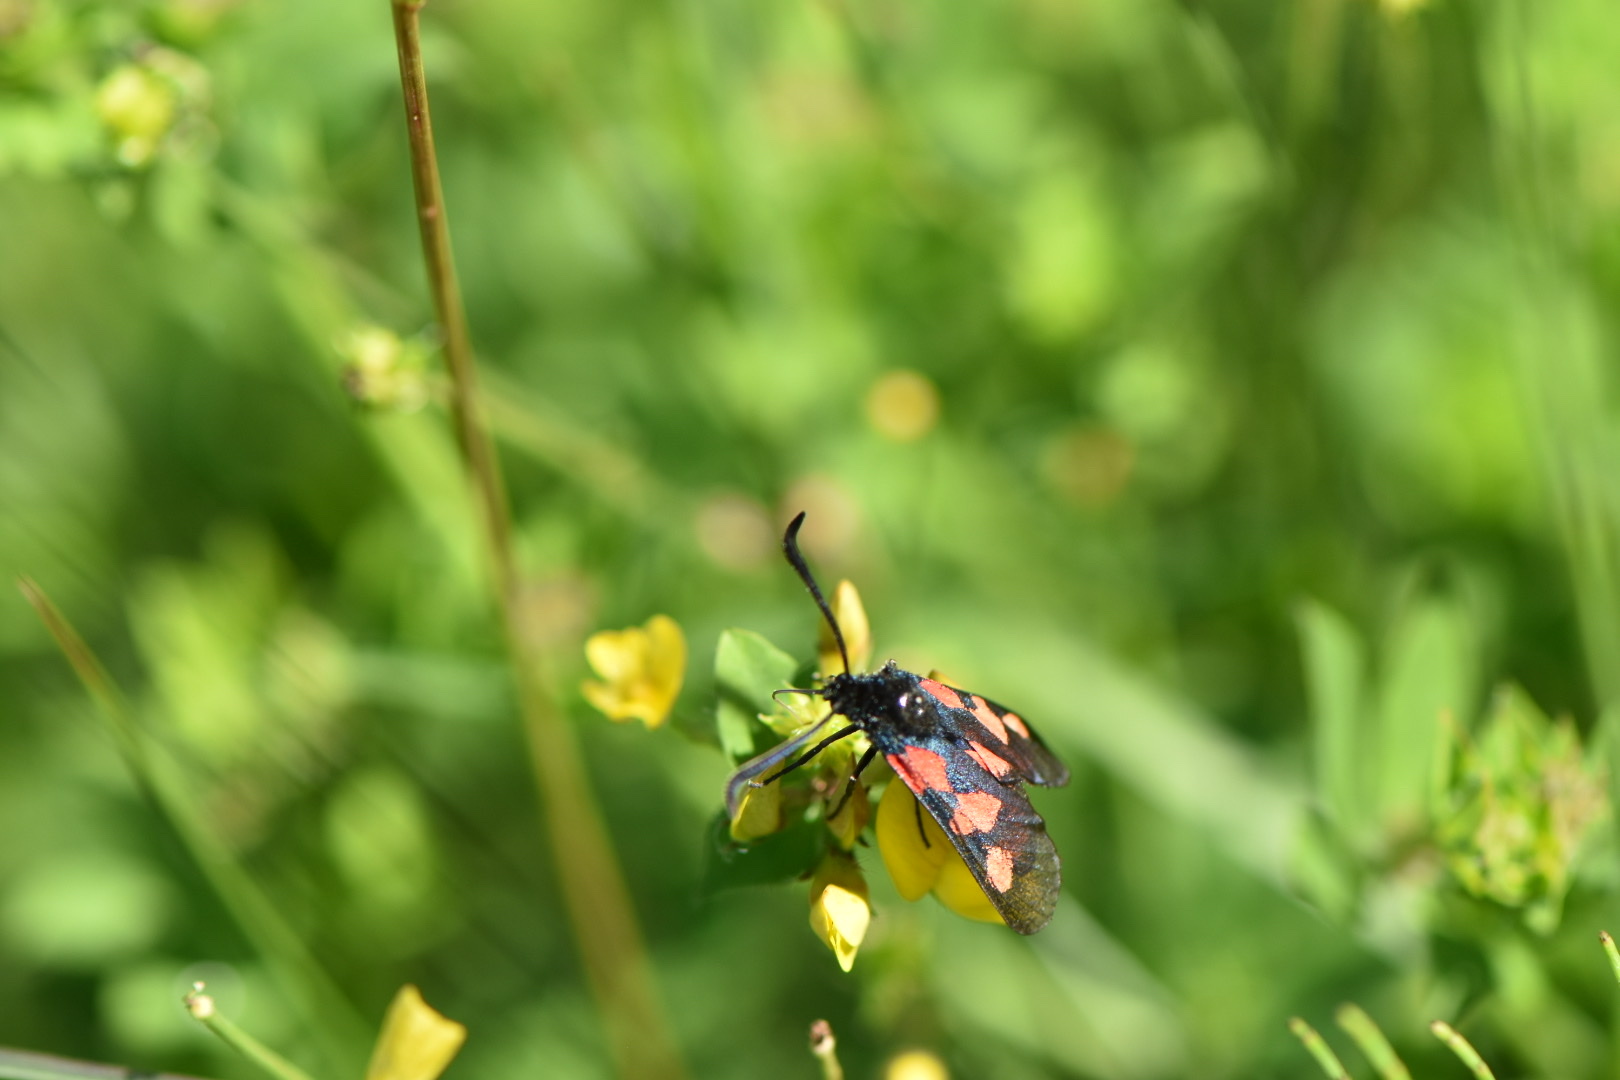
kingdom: Animalia
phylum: Arthropoda
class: Insecta
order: Lepidoptera
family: Zygaenidae
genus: Zygaena
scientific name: Zygaena trifolii
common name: Five-spot burnet
